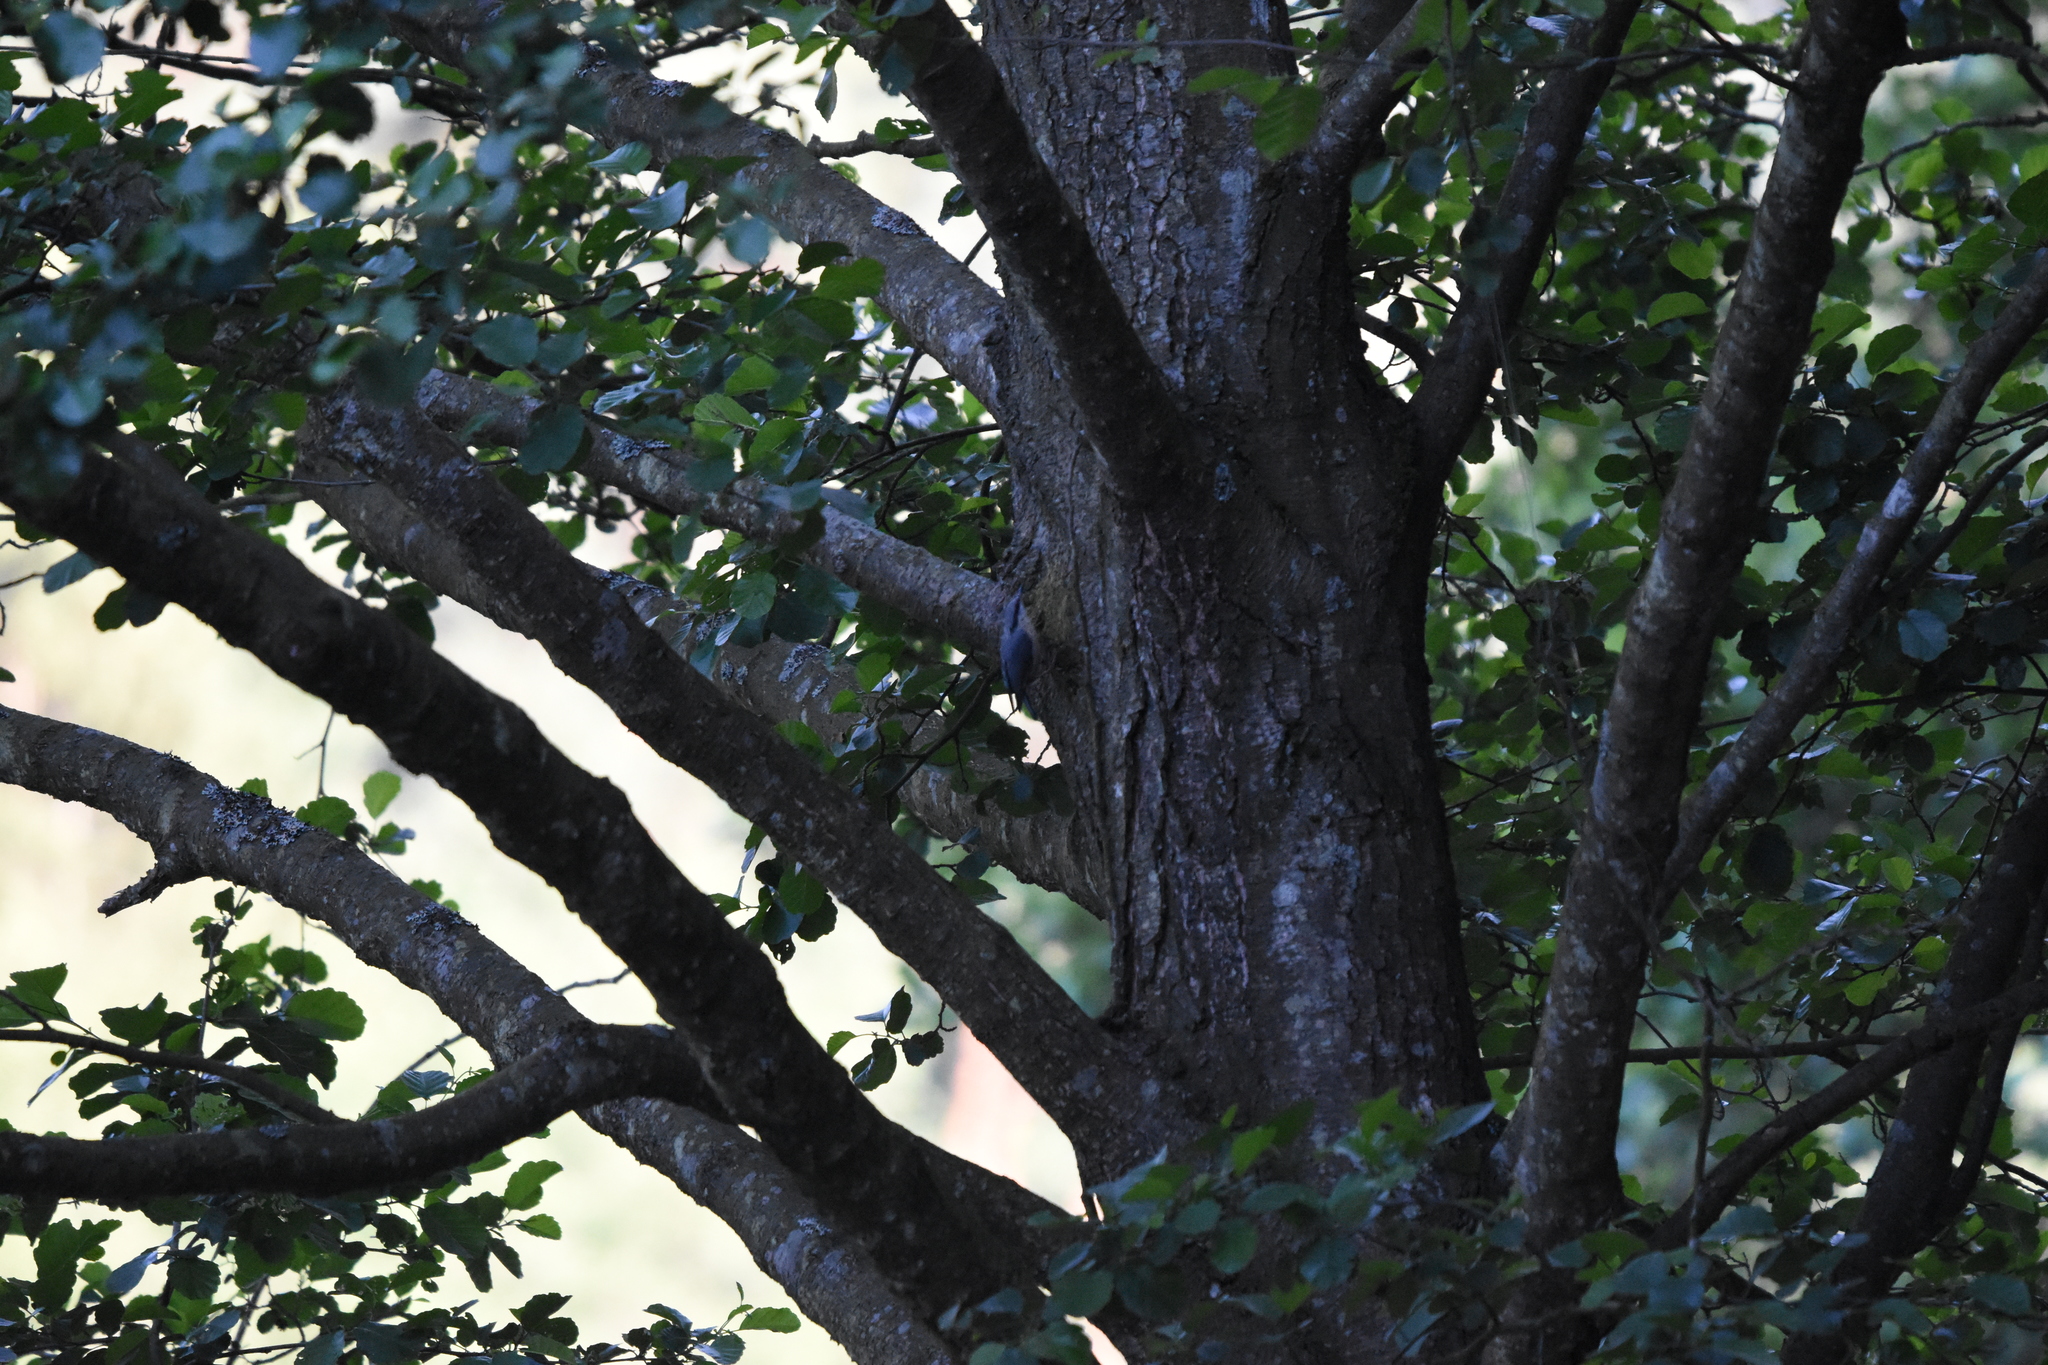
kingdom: Animalia
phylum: Chordata
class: Aves
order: Passeriformes
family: Sittidae
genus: Sitta
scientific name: Sitta europaea
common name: Eurasian nuthatch
